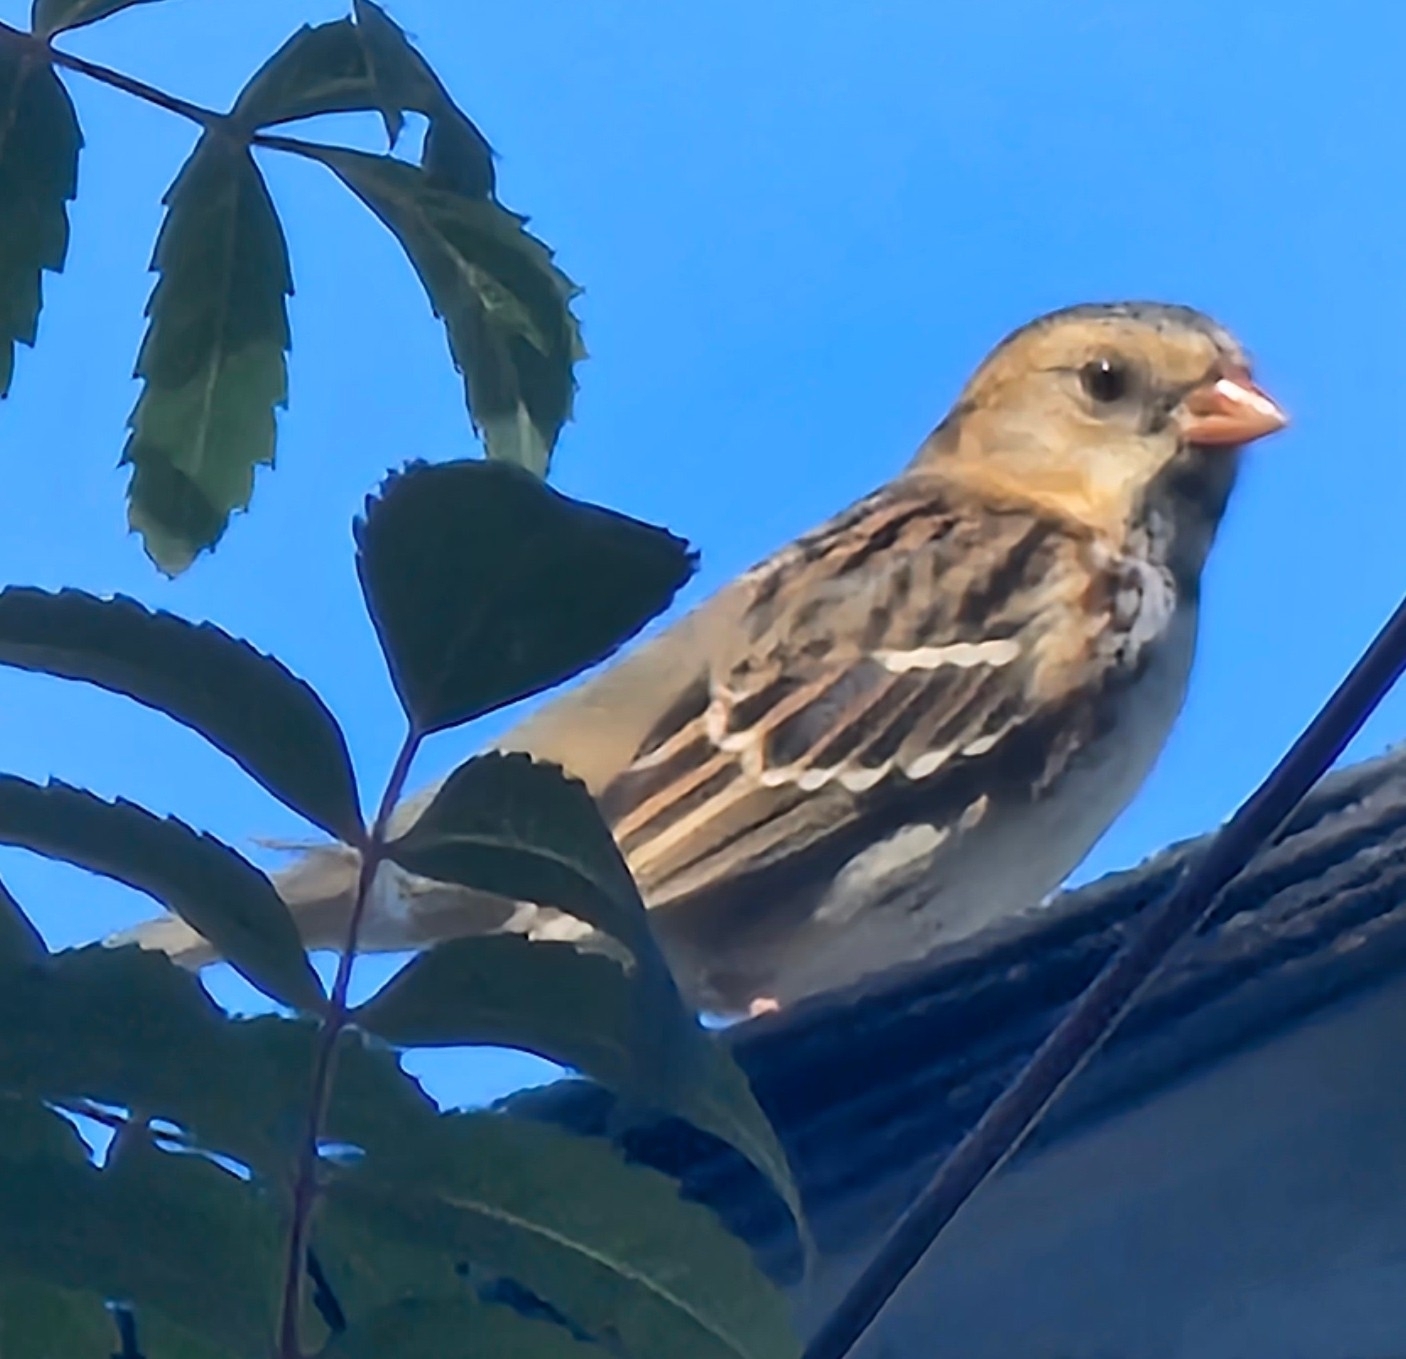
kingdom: Animalia
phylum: Chordata
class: Aves
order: Passeriformes
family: Passerellidae
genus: Zonotrichia
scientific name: Zonotrichia querula
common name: Harris's sparrow
